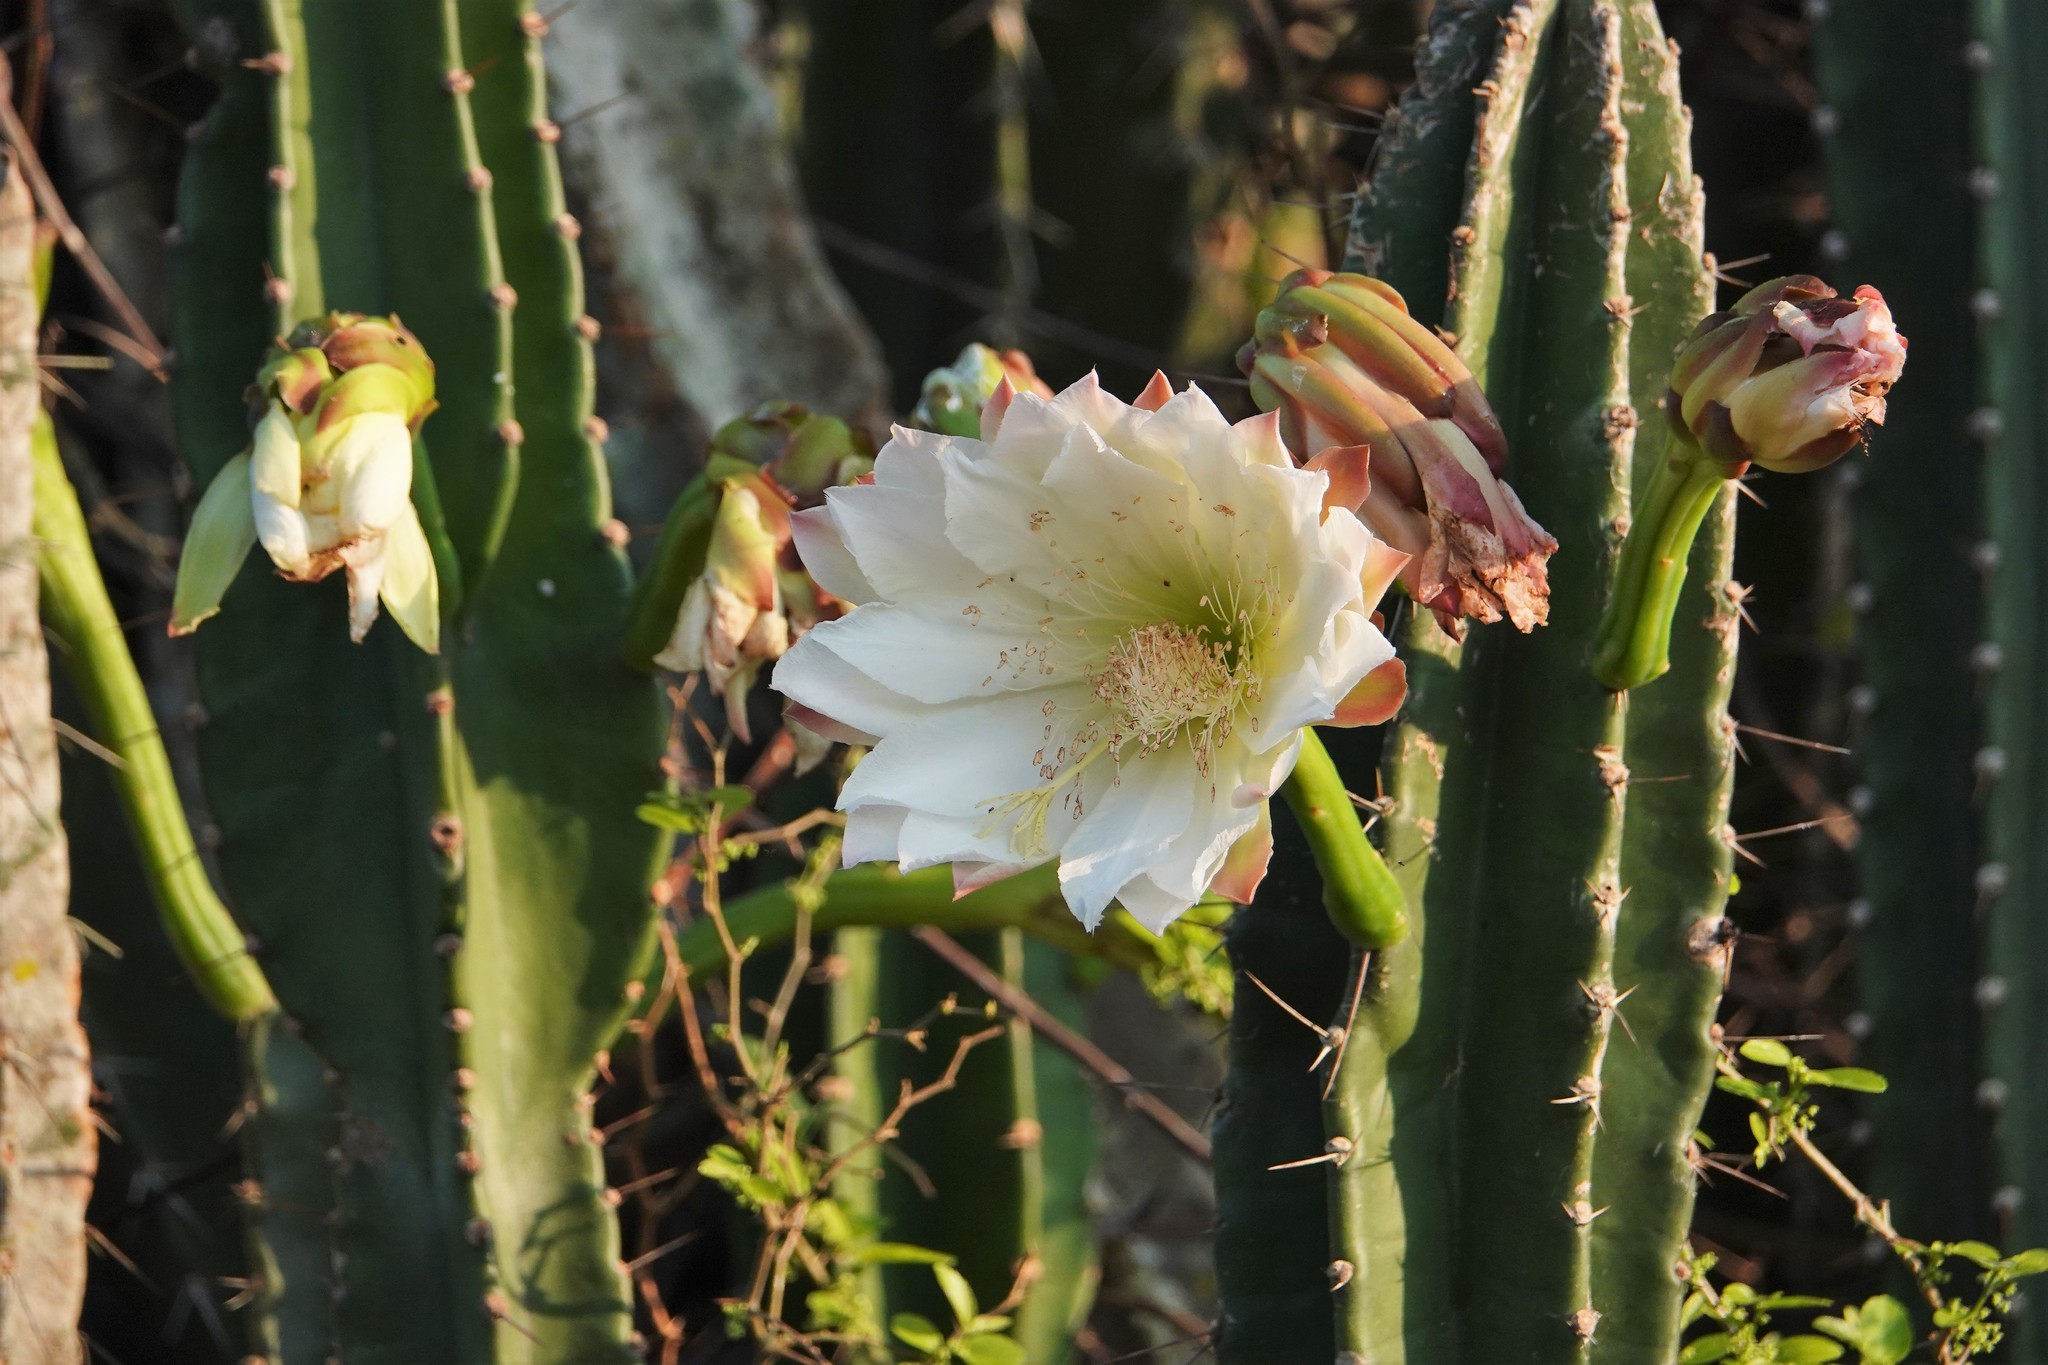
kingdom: Plantae
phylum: Tracheophyta
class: Magnoliopsida
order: Caryophyllales
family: Cactaceae
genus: Cereus
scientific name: Cereus bicolor
